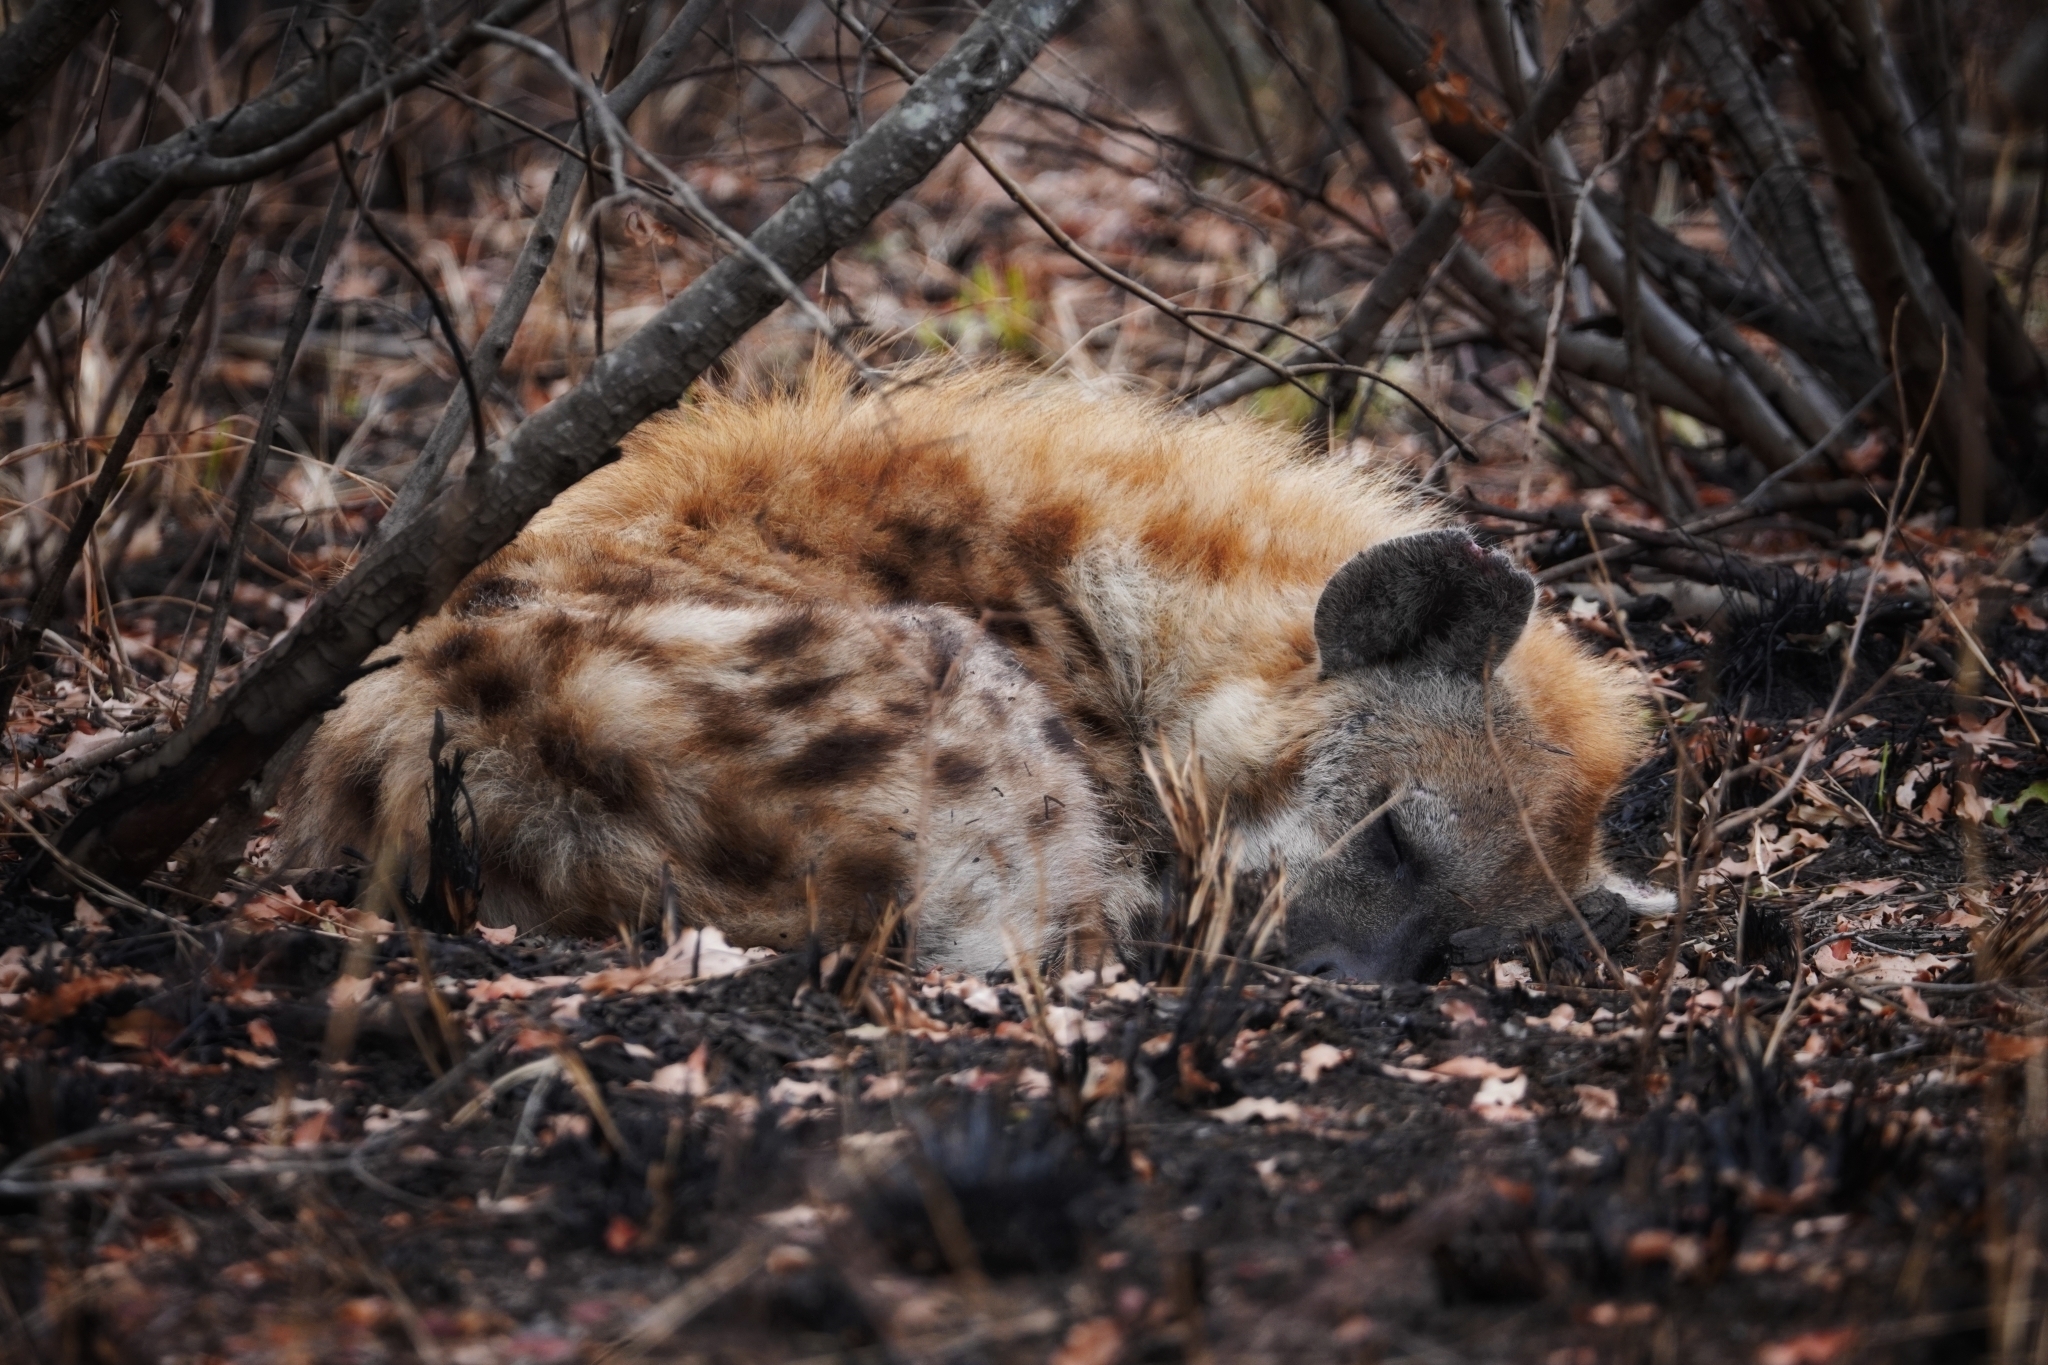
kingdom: Animalia
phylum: Chordata
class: Mammalia
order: Carnivora
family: Hyaenidae
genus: Crocuta
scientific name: Crocuta crocuta
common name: Spotted hyaena
